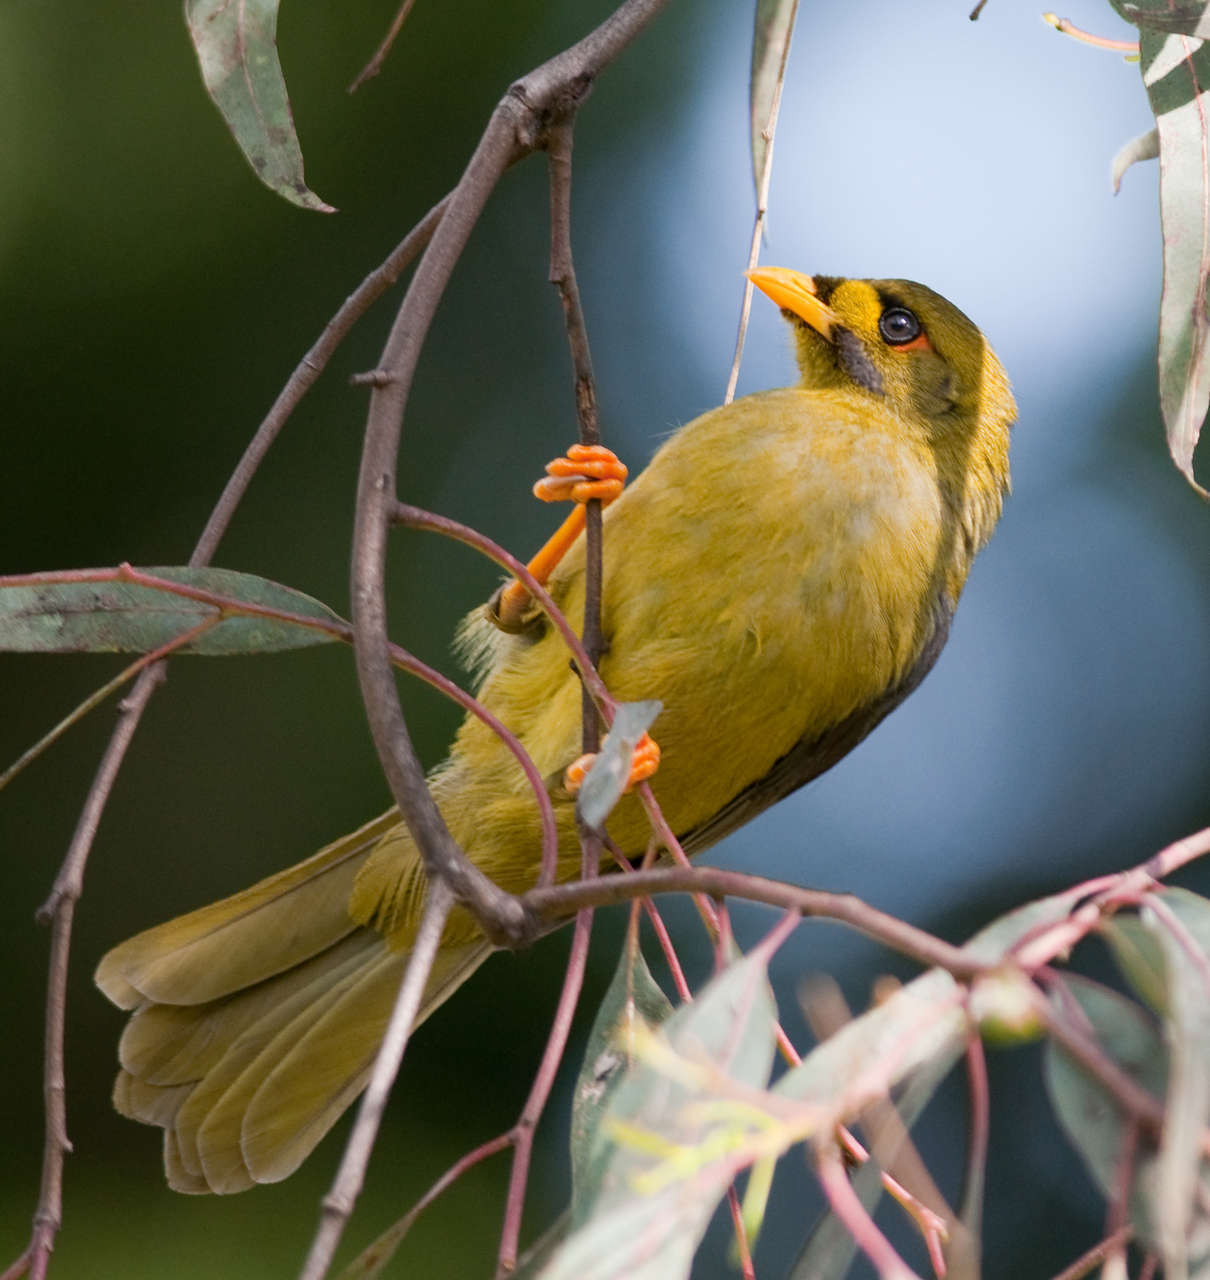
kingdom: Animalia
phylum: Chordata
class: Aves
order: Passeriformes
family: Meliphagidae
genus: Manorina
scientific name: Manorina melanophrys
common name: Bell miner
